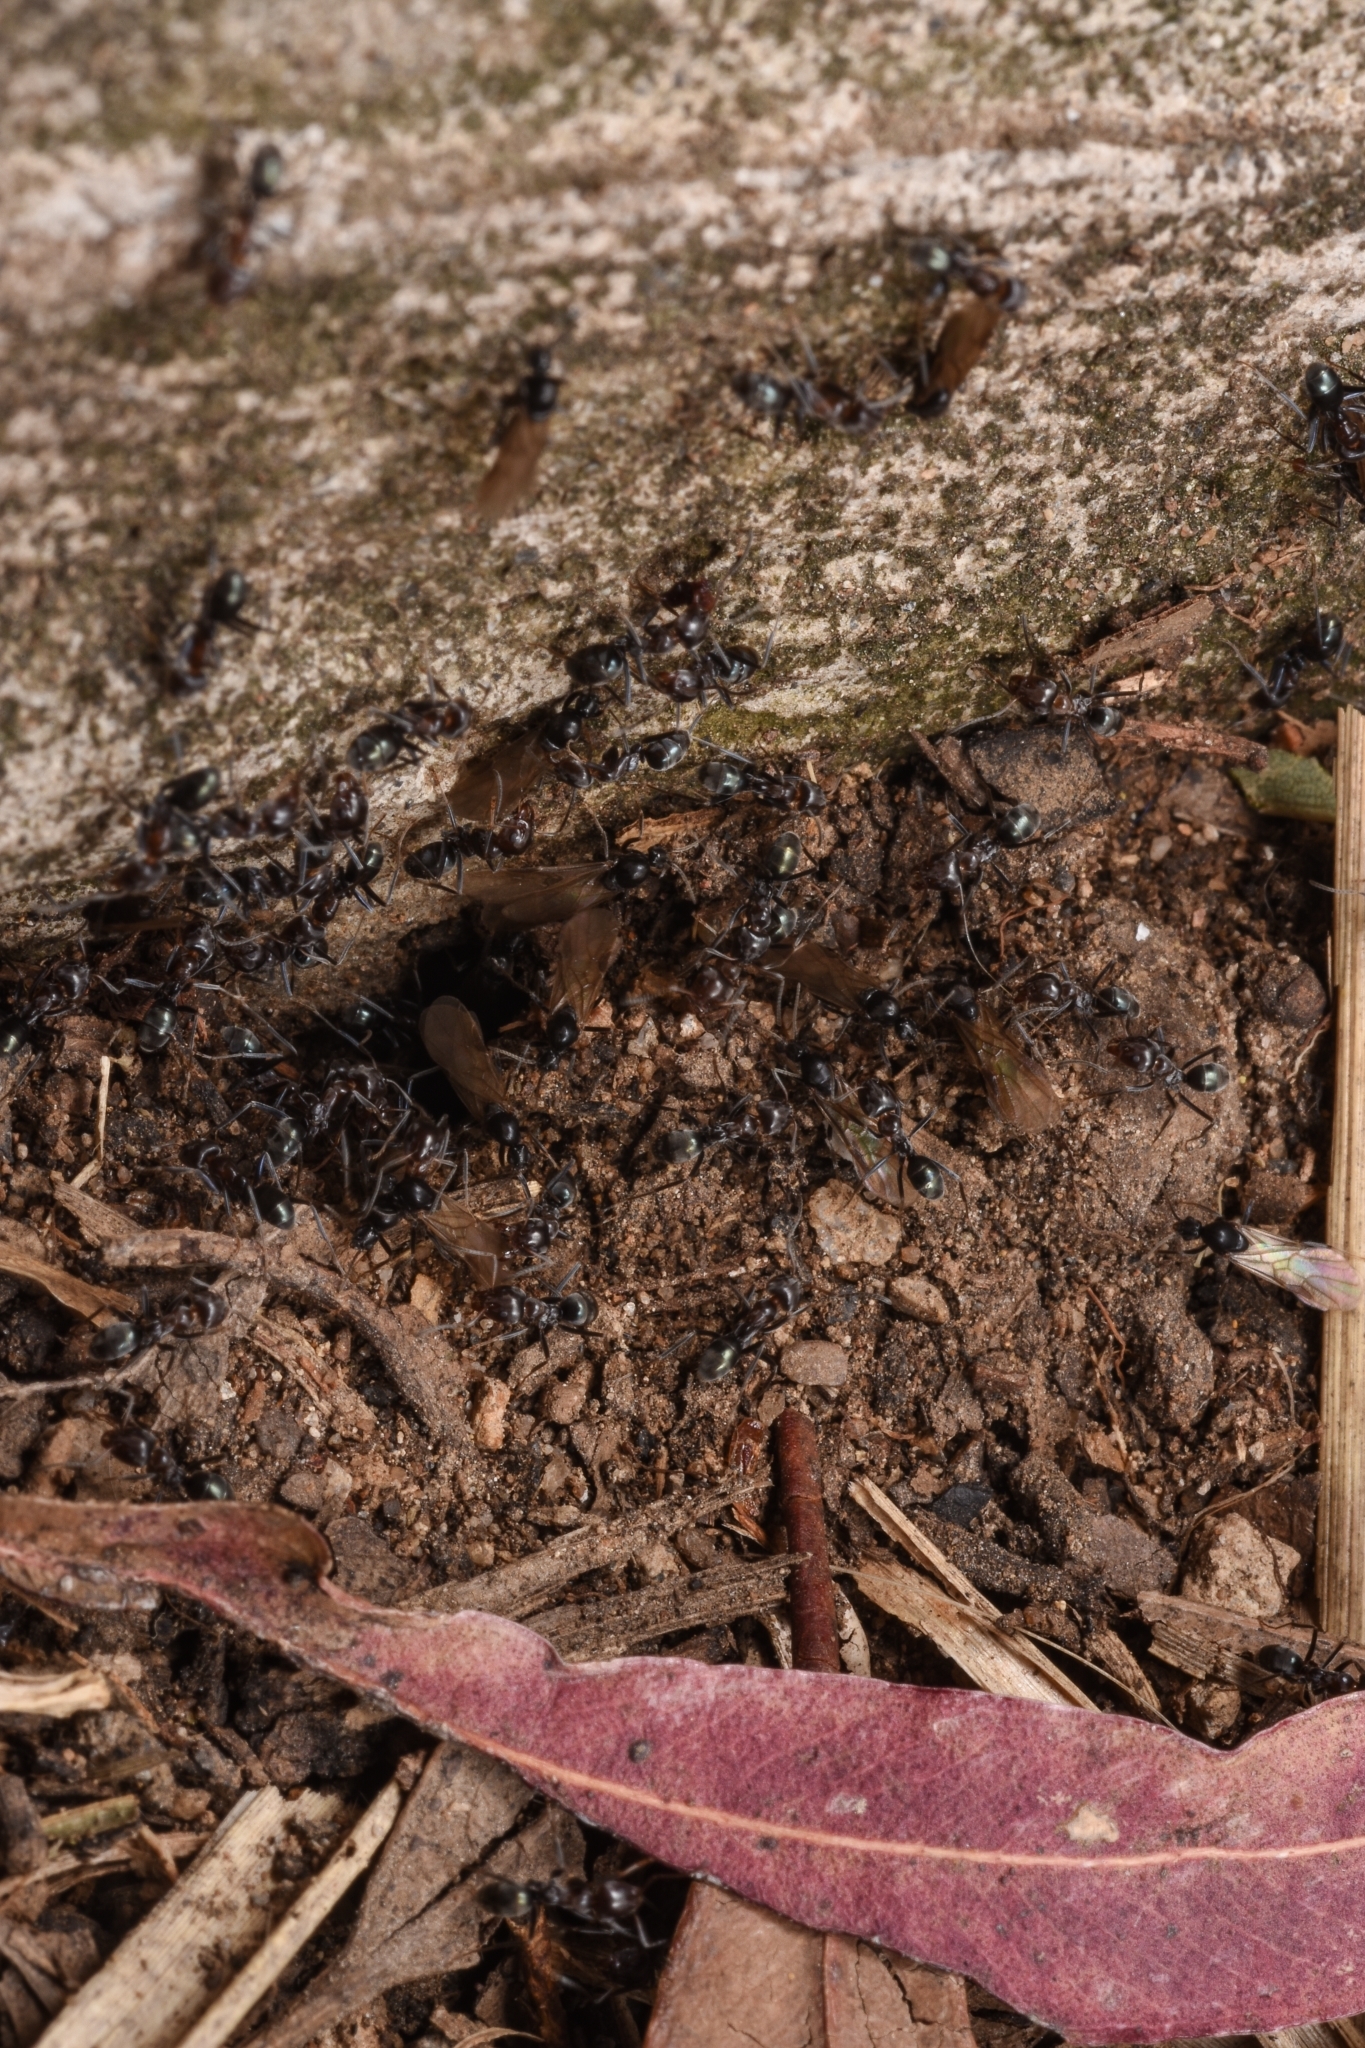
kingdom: Animalia
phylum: Arthropoda
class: Insecta
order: Hymenoptera
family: Formicidae
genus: Iridomyrmex
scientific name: Iridomyrmex rufoniger
